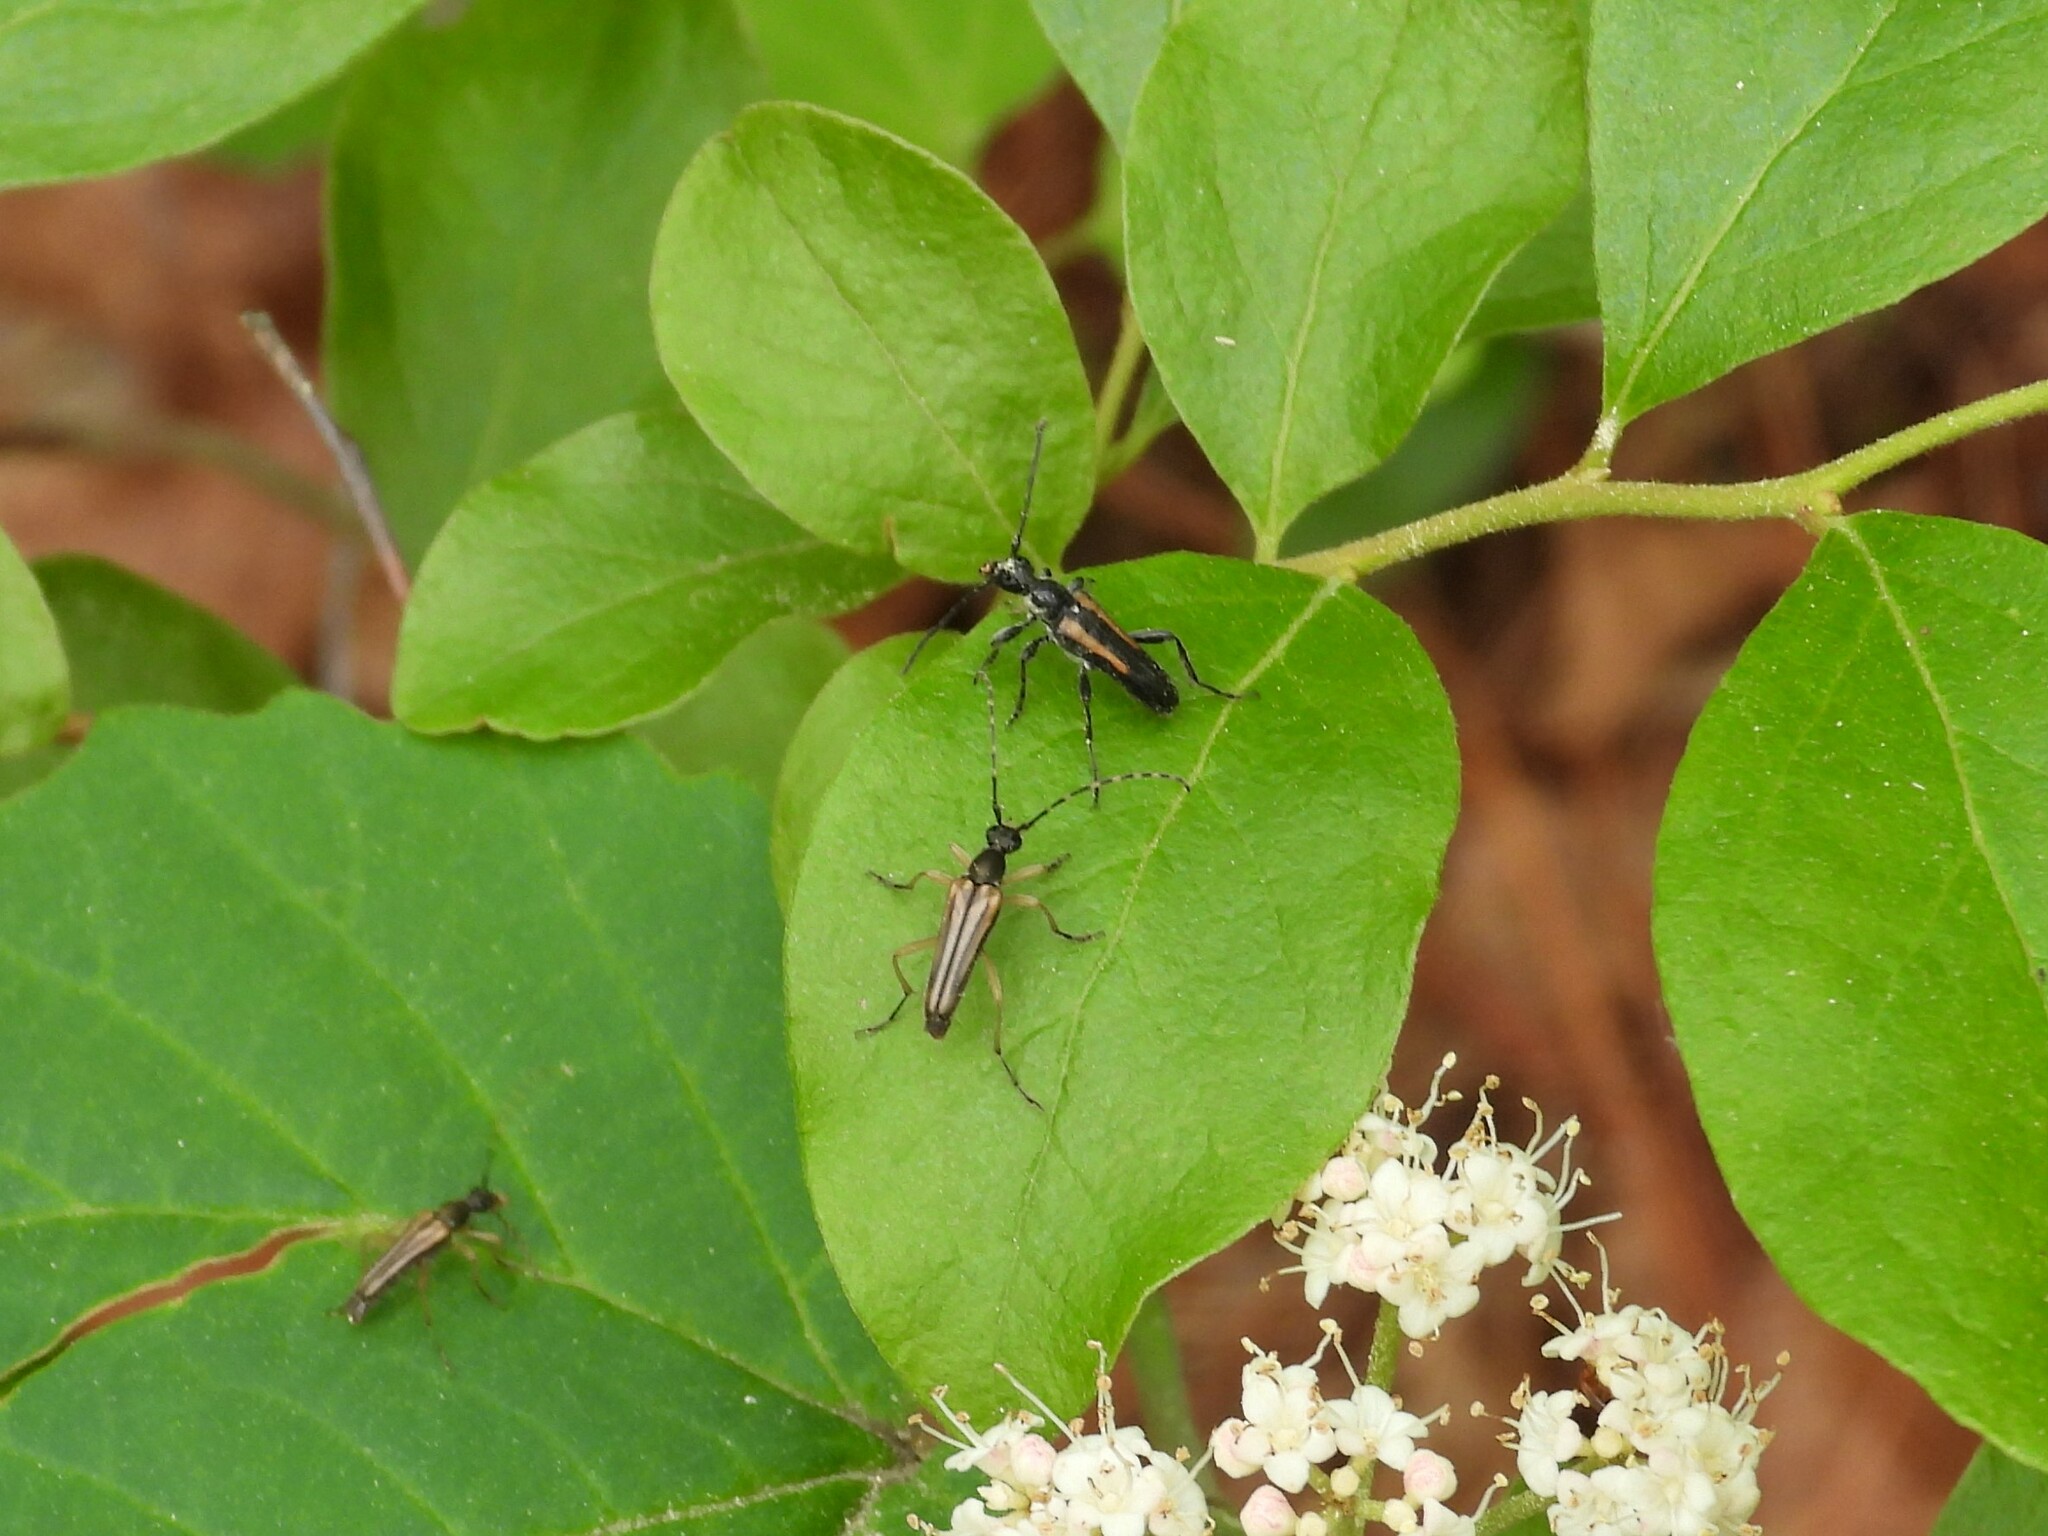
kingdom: Animalia
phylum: Arthropoda
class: Insecta
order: Coleoptera
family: Cerambycidae
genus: Strangalepta
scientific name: Strangalepta abbreviata
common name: Strangalepta flower longhorn beetle
